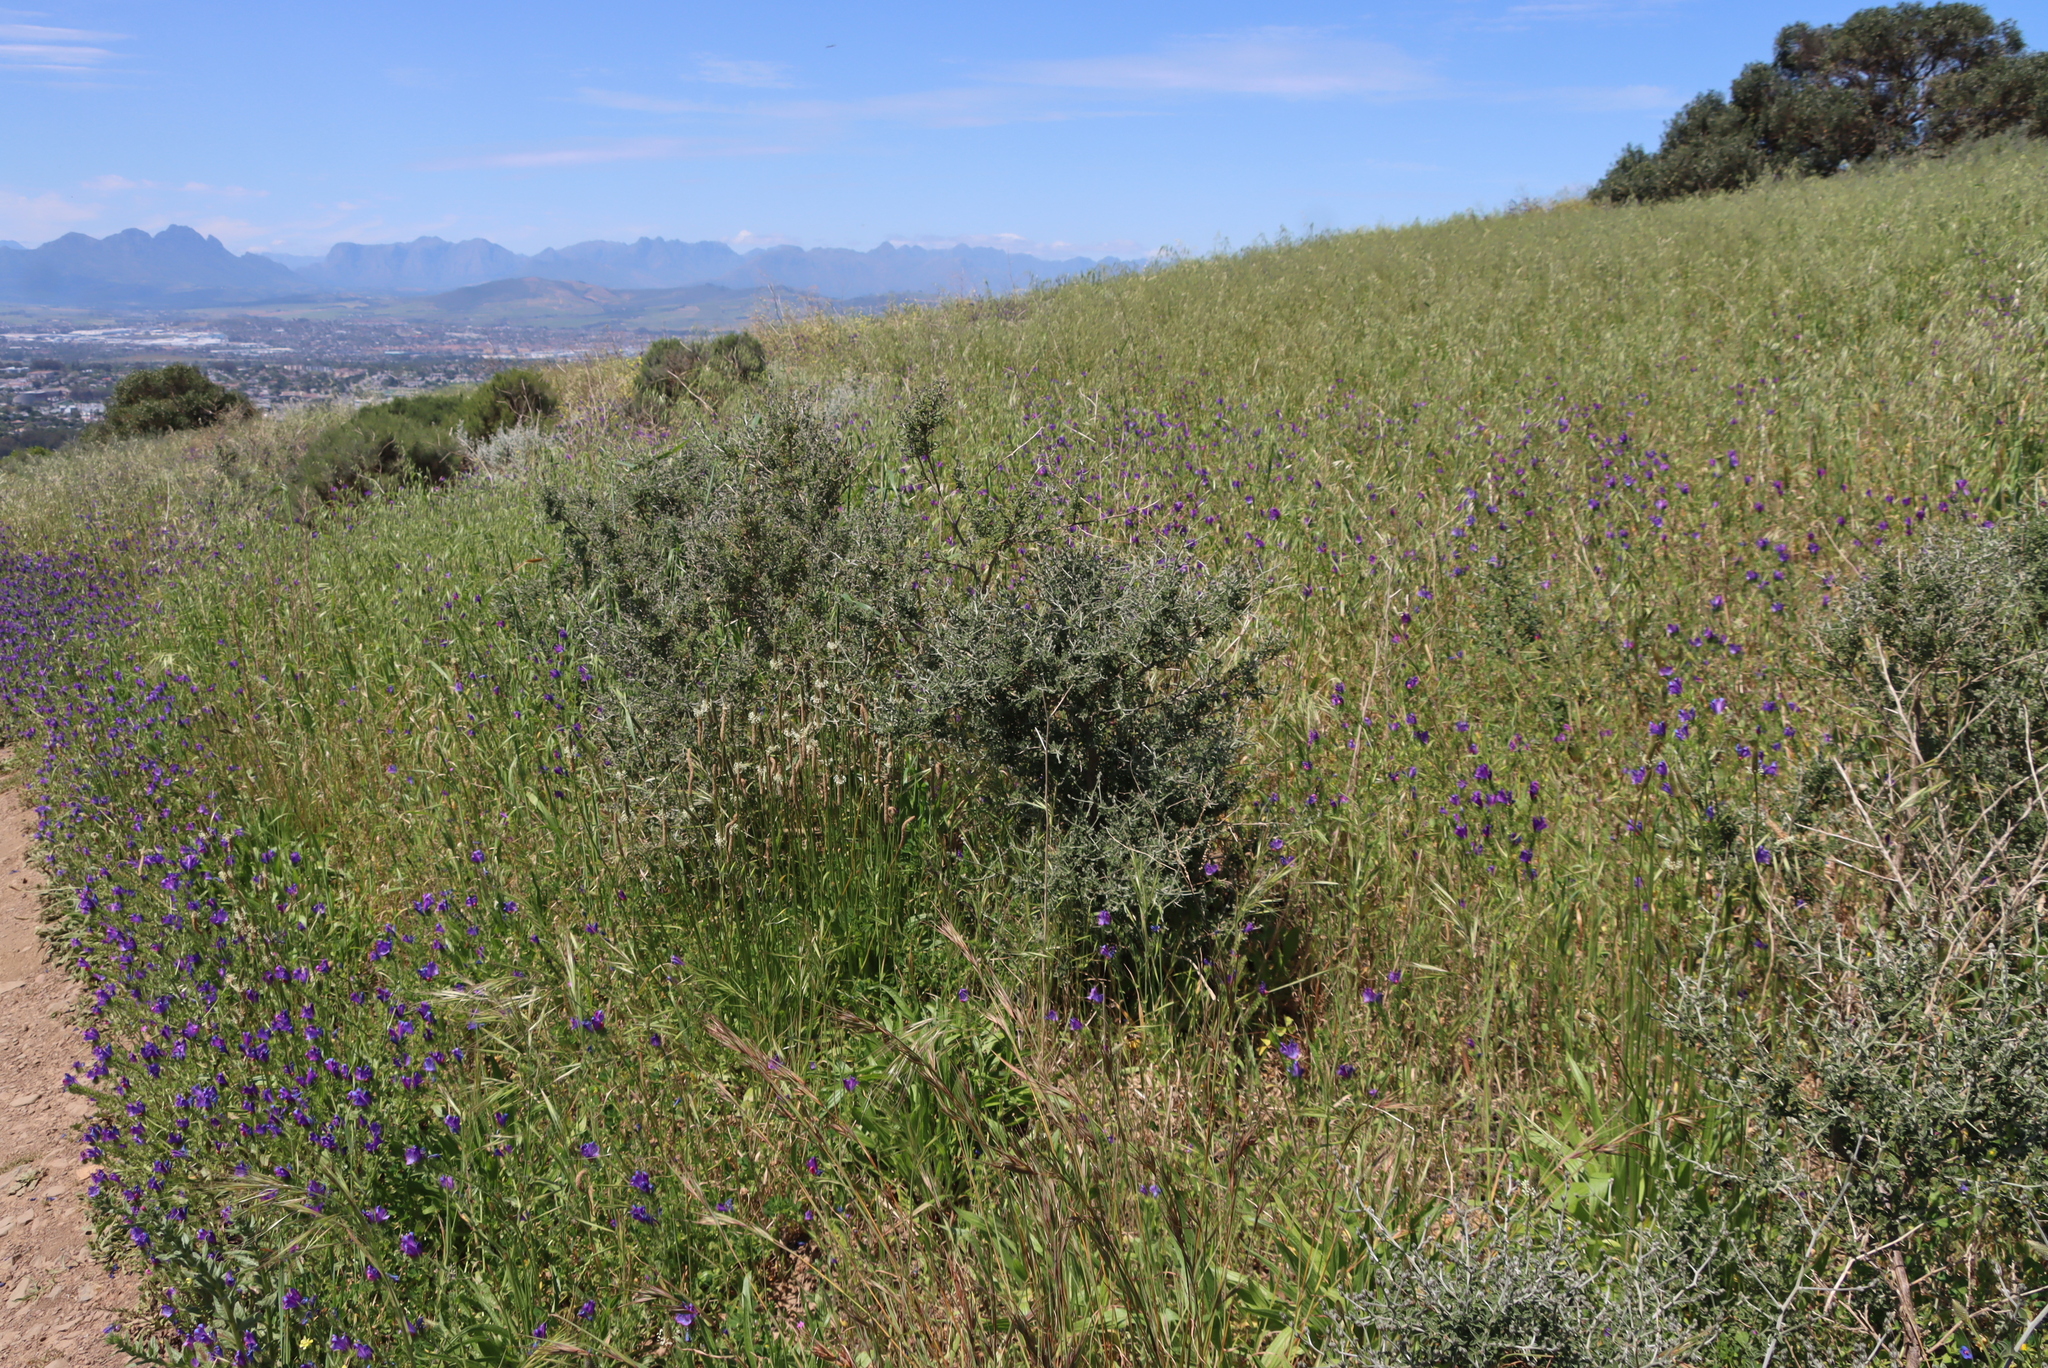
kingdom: Plantae
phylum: Tracheophyta
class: Magnoliopsida
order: Fabales
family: Fabaceae
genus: Psoralea
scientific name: Psoralea hirta
